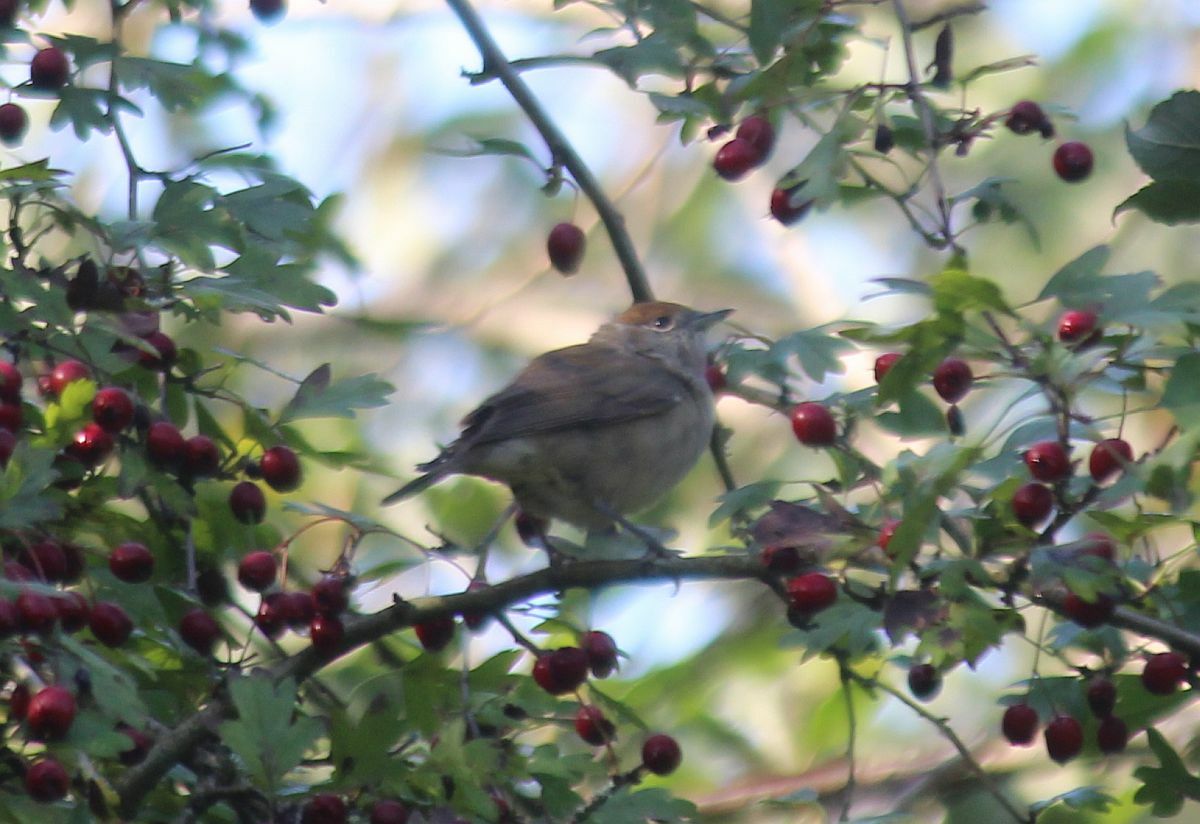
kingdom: Animalia
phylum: Chordata
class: Aves
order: Passeriformes
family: Sylviidae
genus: Sylvia
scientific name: Sylvia atricapilla
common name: Eurasian blackcap
